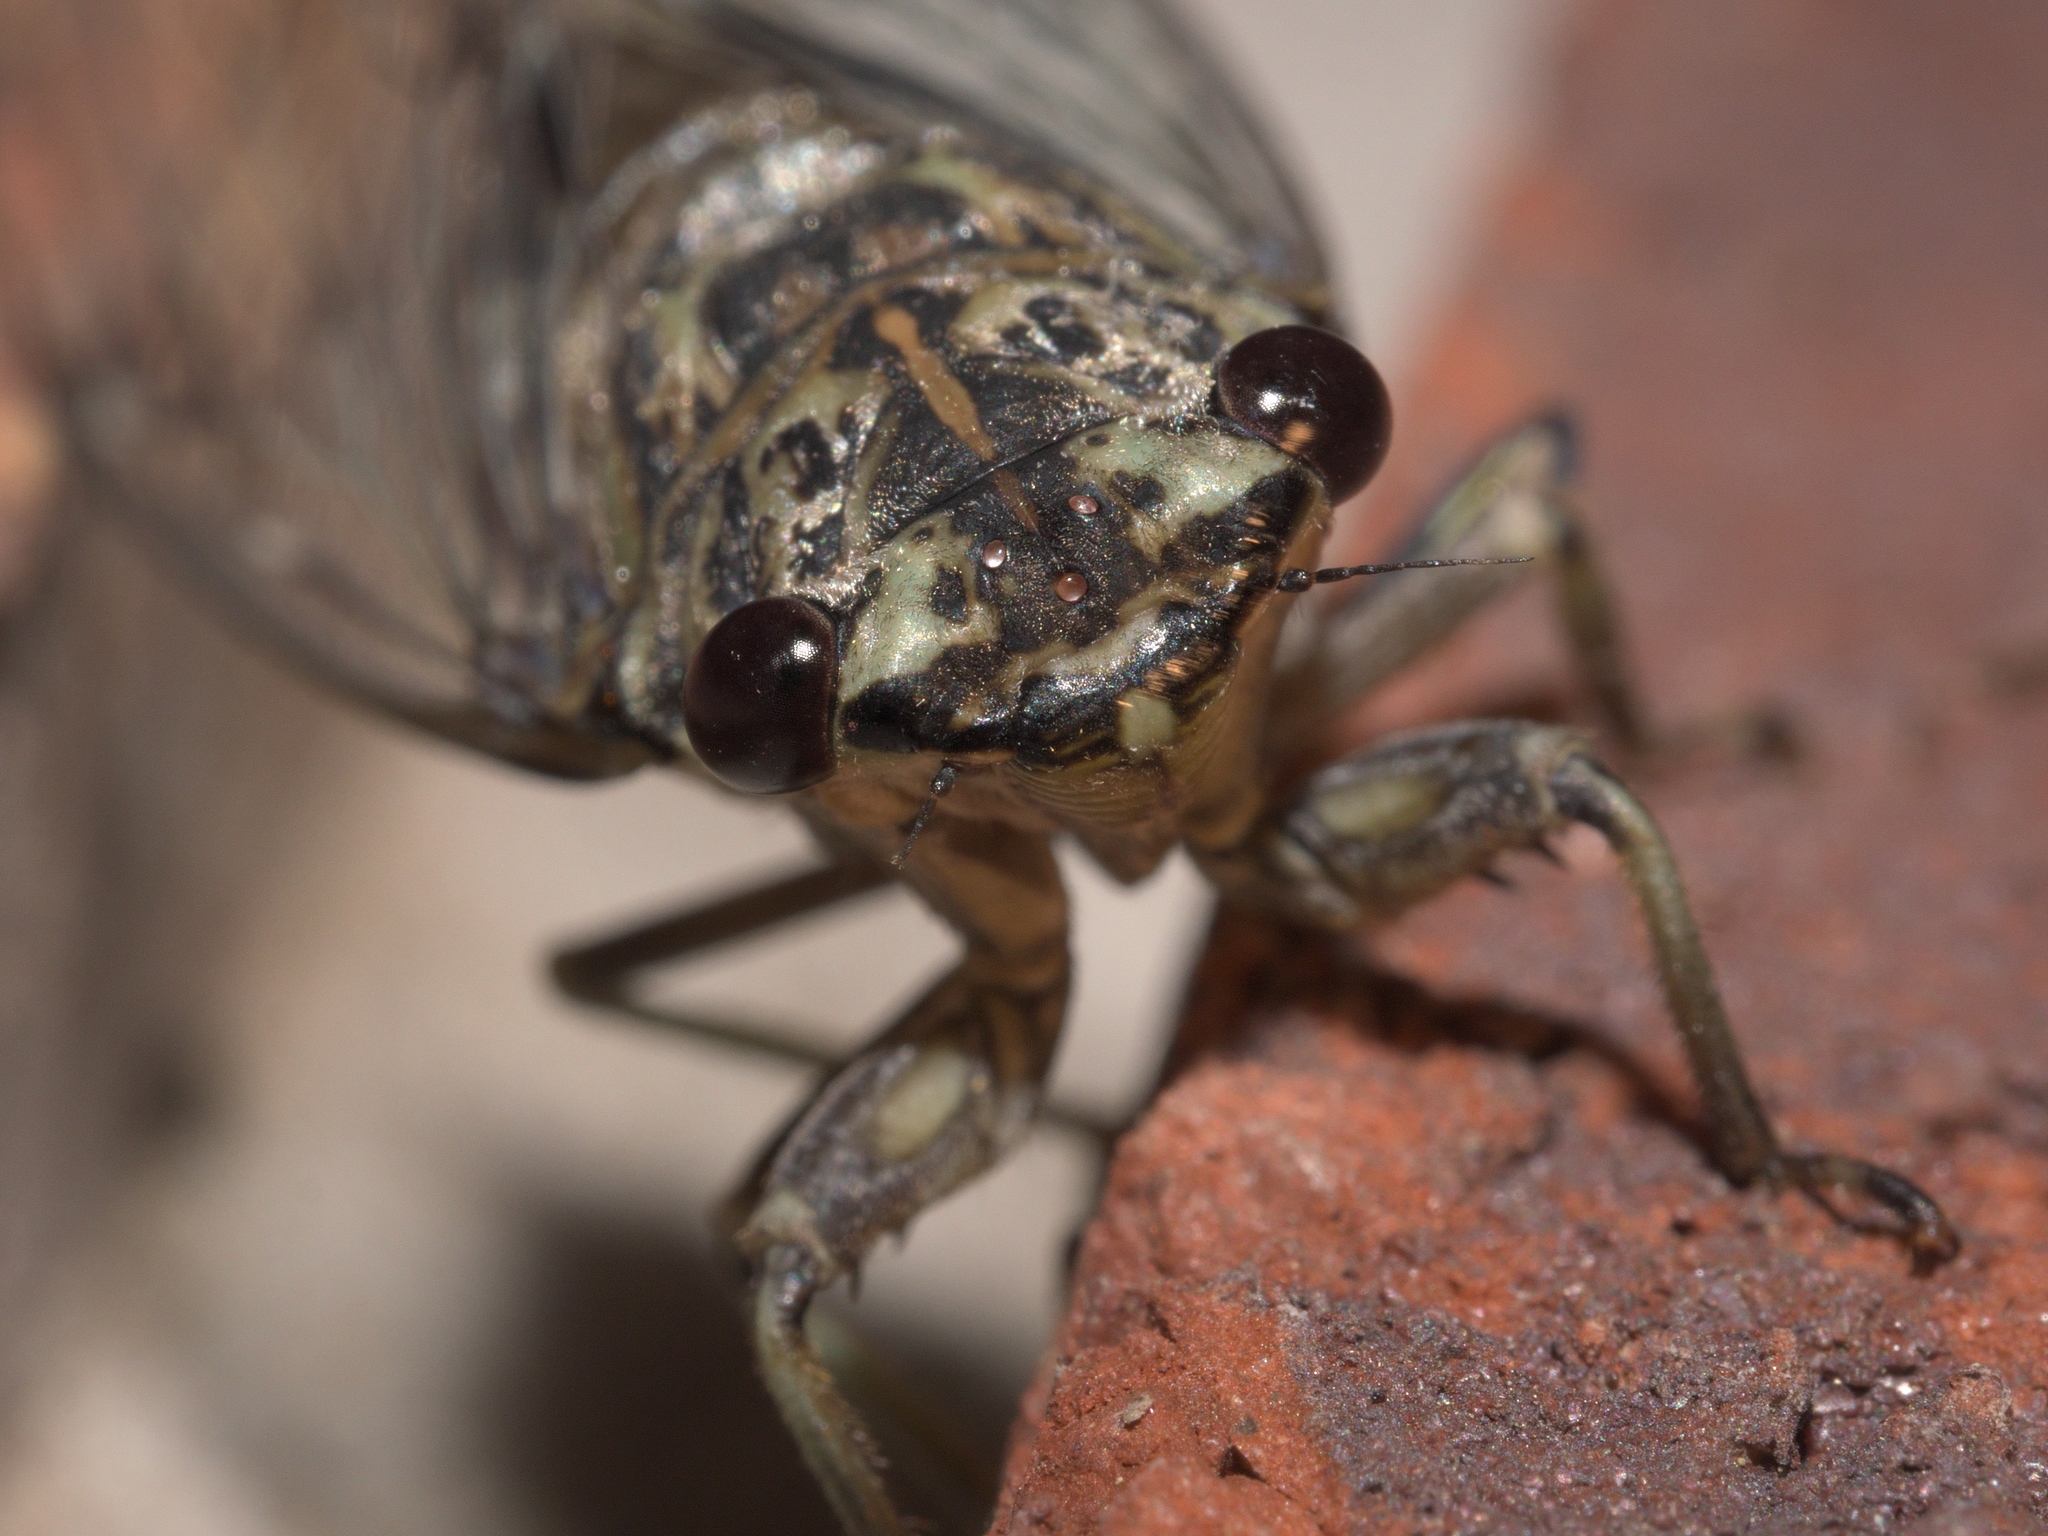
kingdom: Animalia
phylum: Arthropoda
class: Insecta
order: Hemiptera
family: Cicadidae
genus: Neocicada
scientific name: Neocicada hieroglyphica
